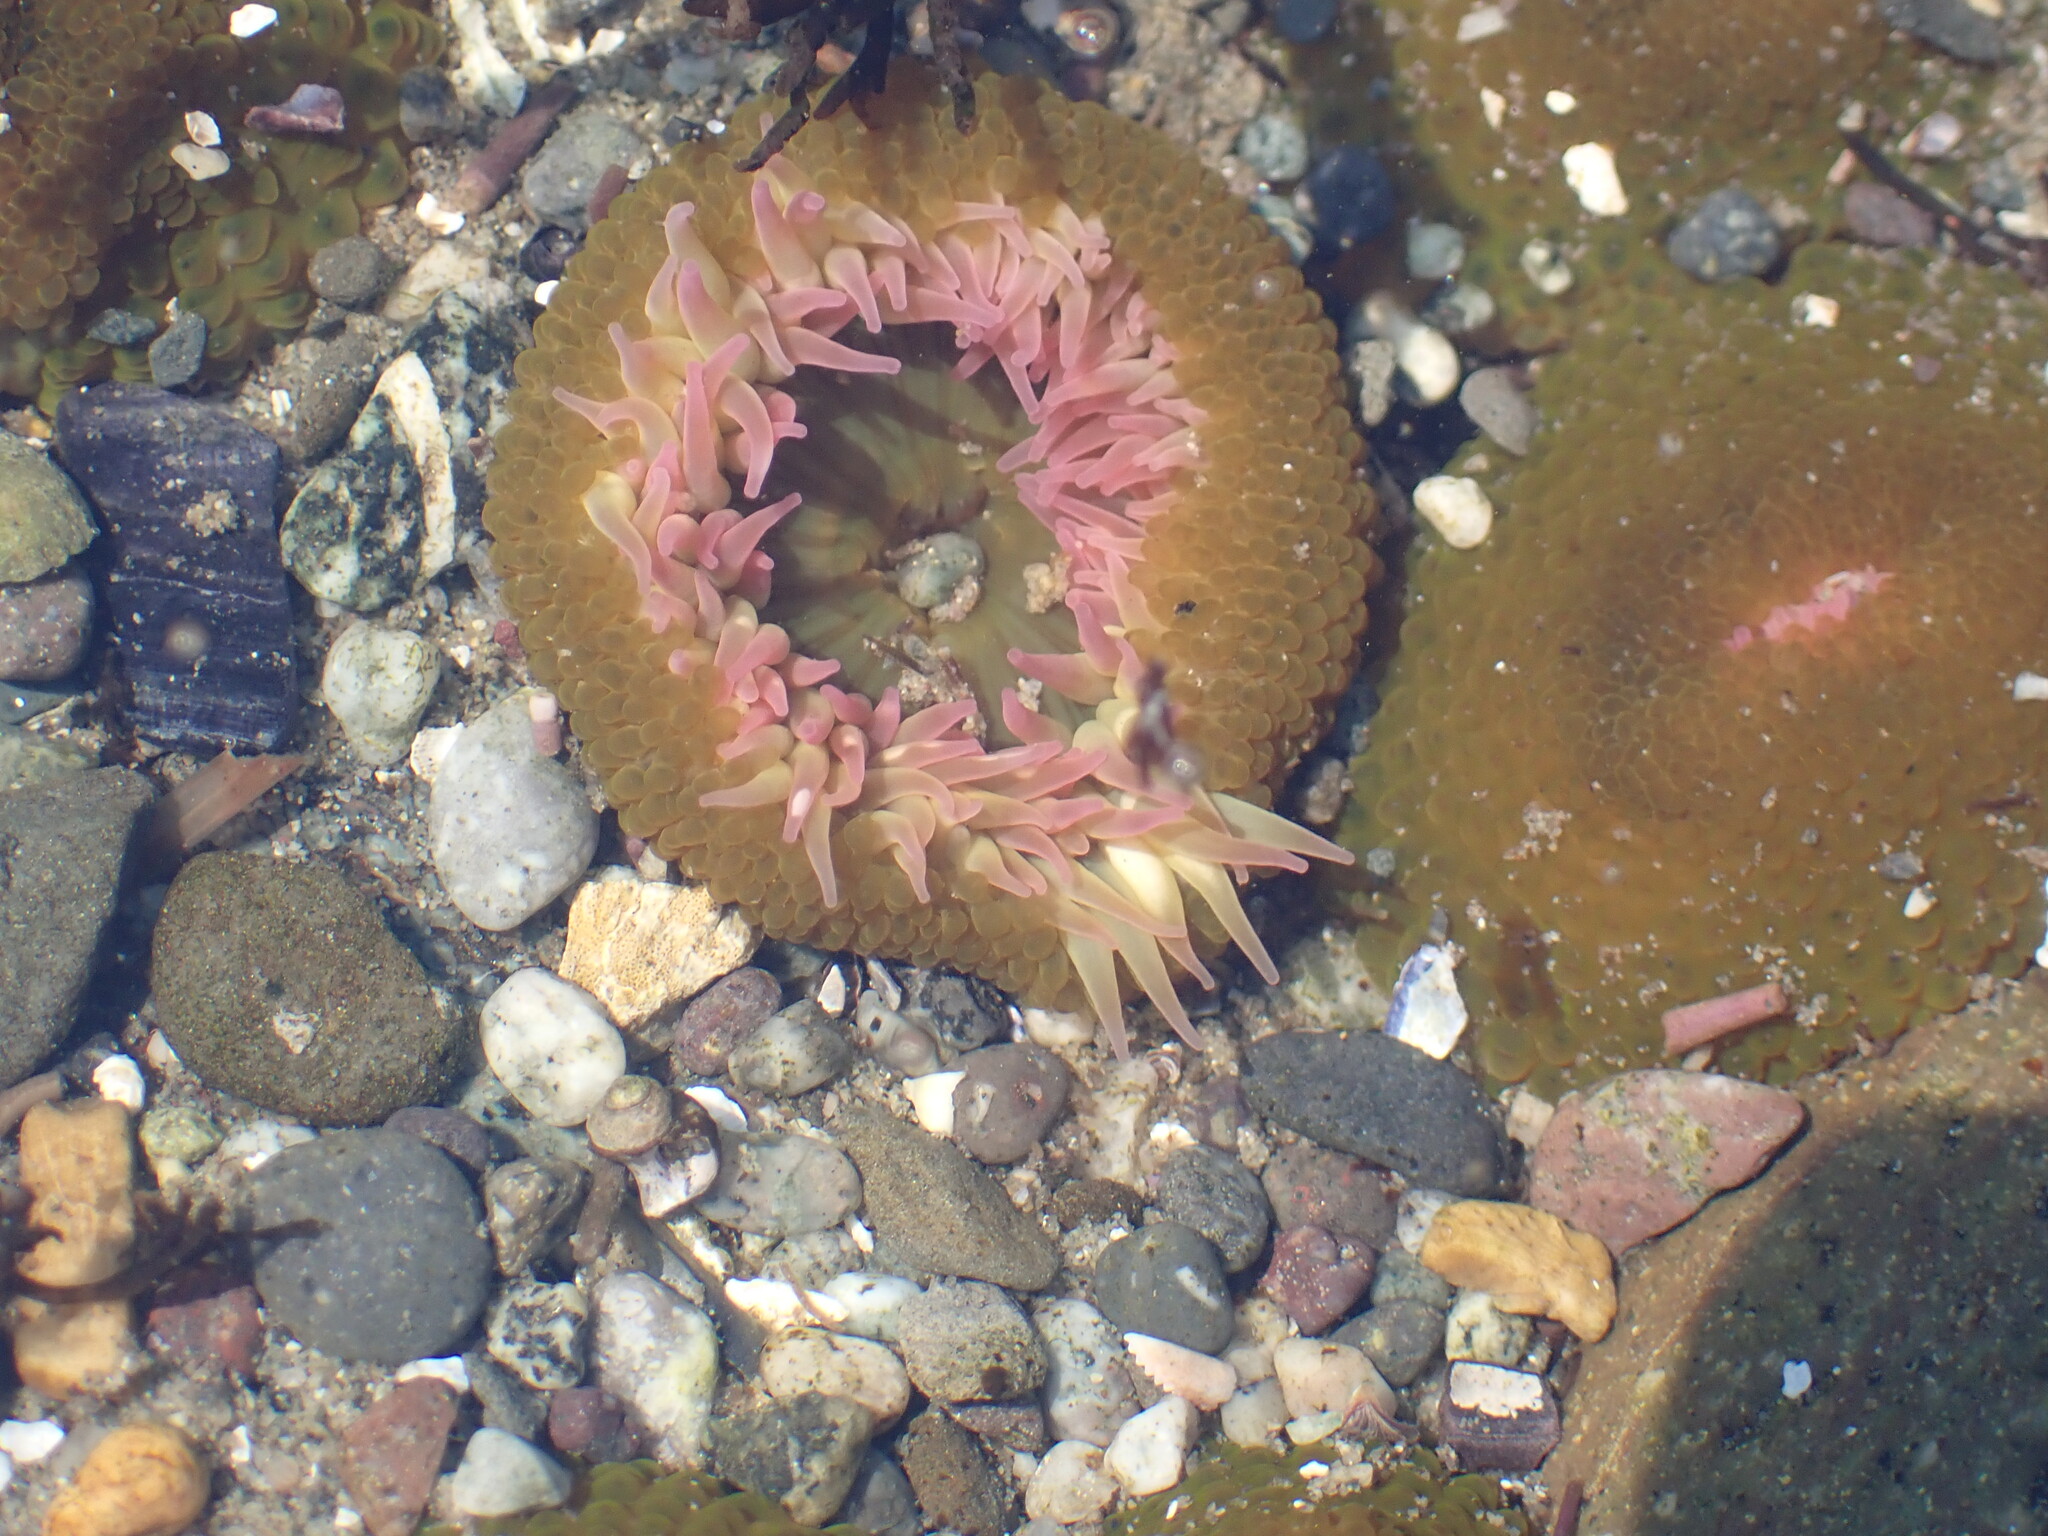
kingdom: Animalia
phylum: Cnidaria
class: Anthozoa
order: Actiniaria
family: Actiniidae
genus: Anthopleura
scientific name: Anthopleura elegantissima
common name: Clonal anemone
